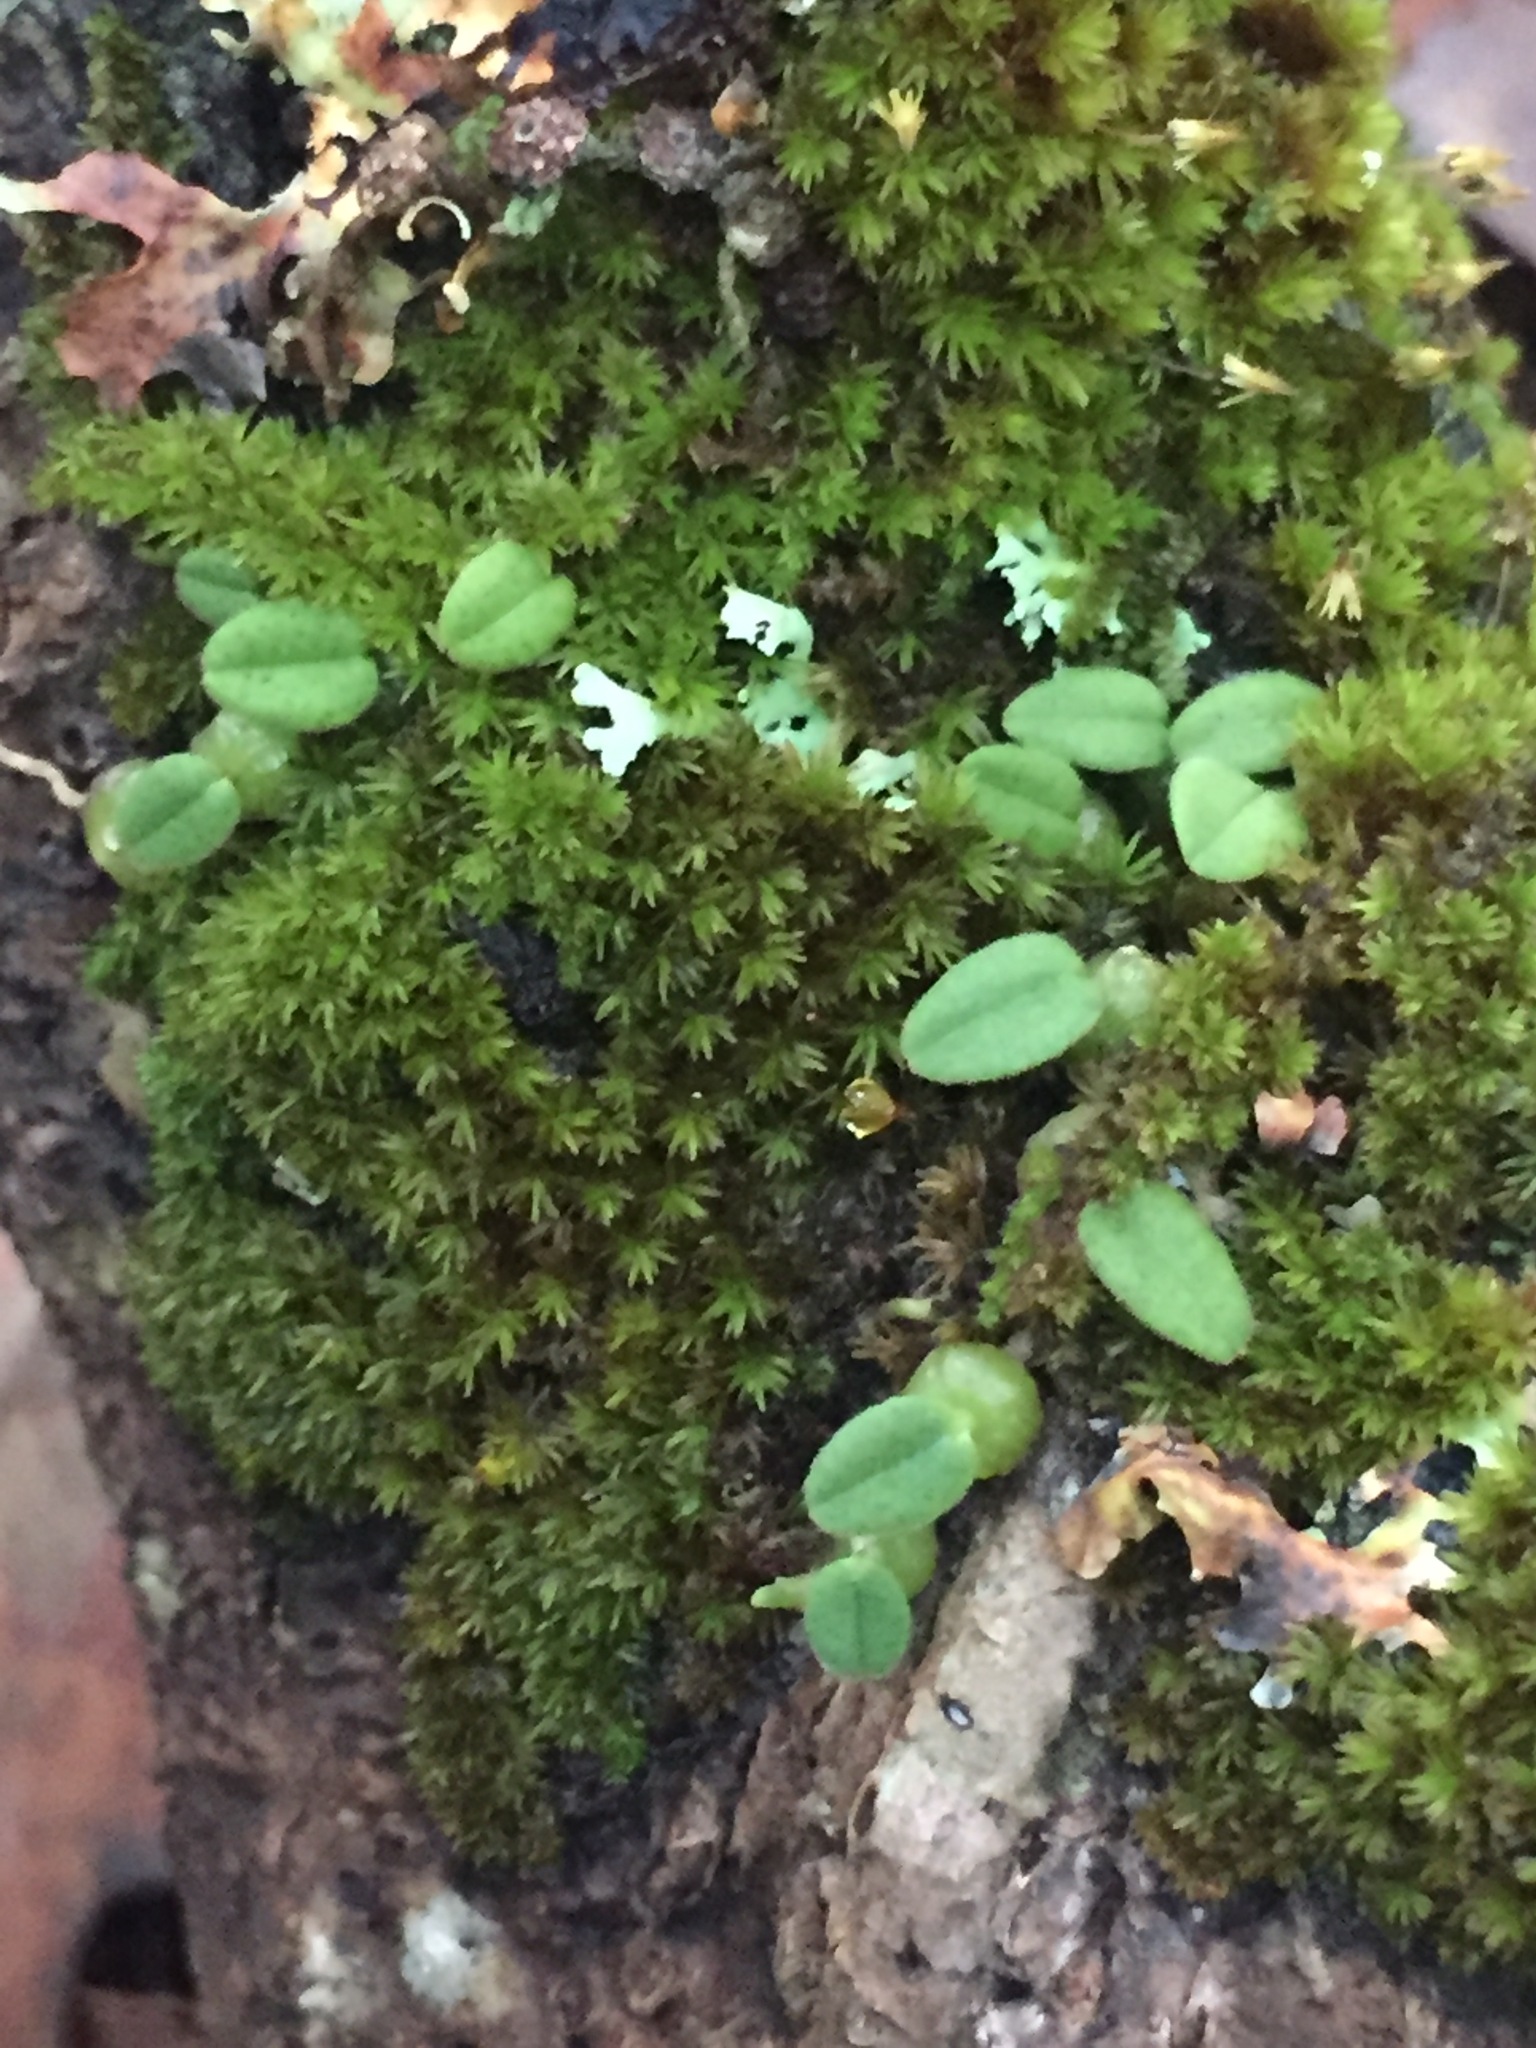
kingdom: Plantae
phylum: Tracheophyta
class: Liliopsida
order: Asparagales
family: Orchidaceae
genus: Bulbophyllum
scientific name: Bulbophyllum pygmaeum
